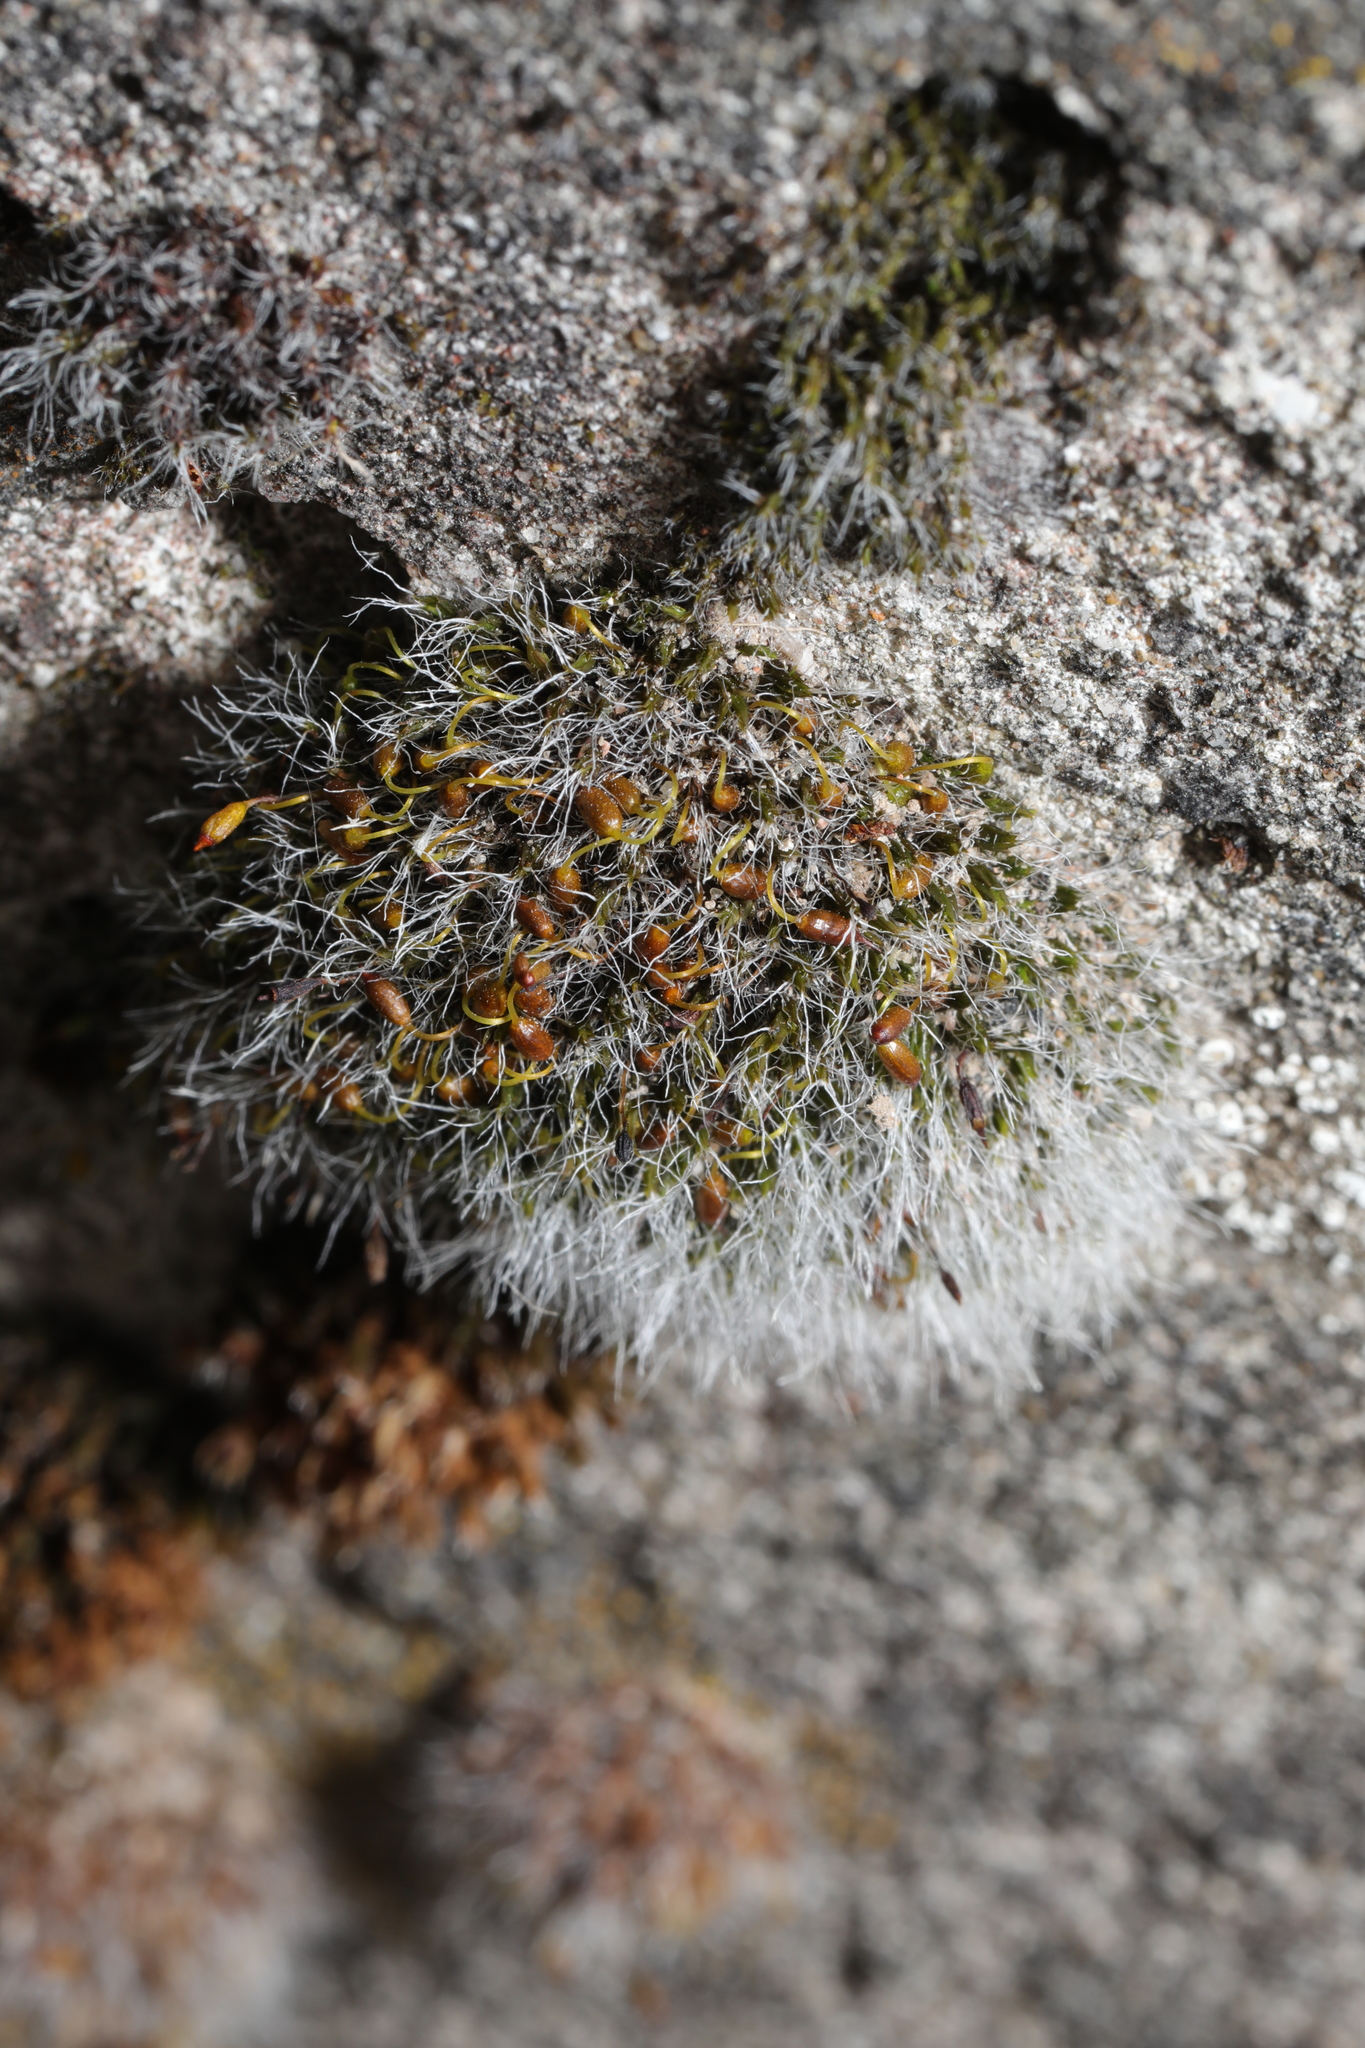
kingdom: Plantae
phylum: Bryophyta
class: Bryopsida
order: Grimmiales
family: Grimmiaceae
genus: Grimmia
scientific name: Grimmia pulvinata
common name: Grey-cushioned grimmia
